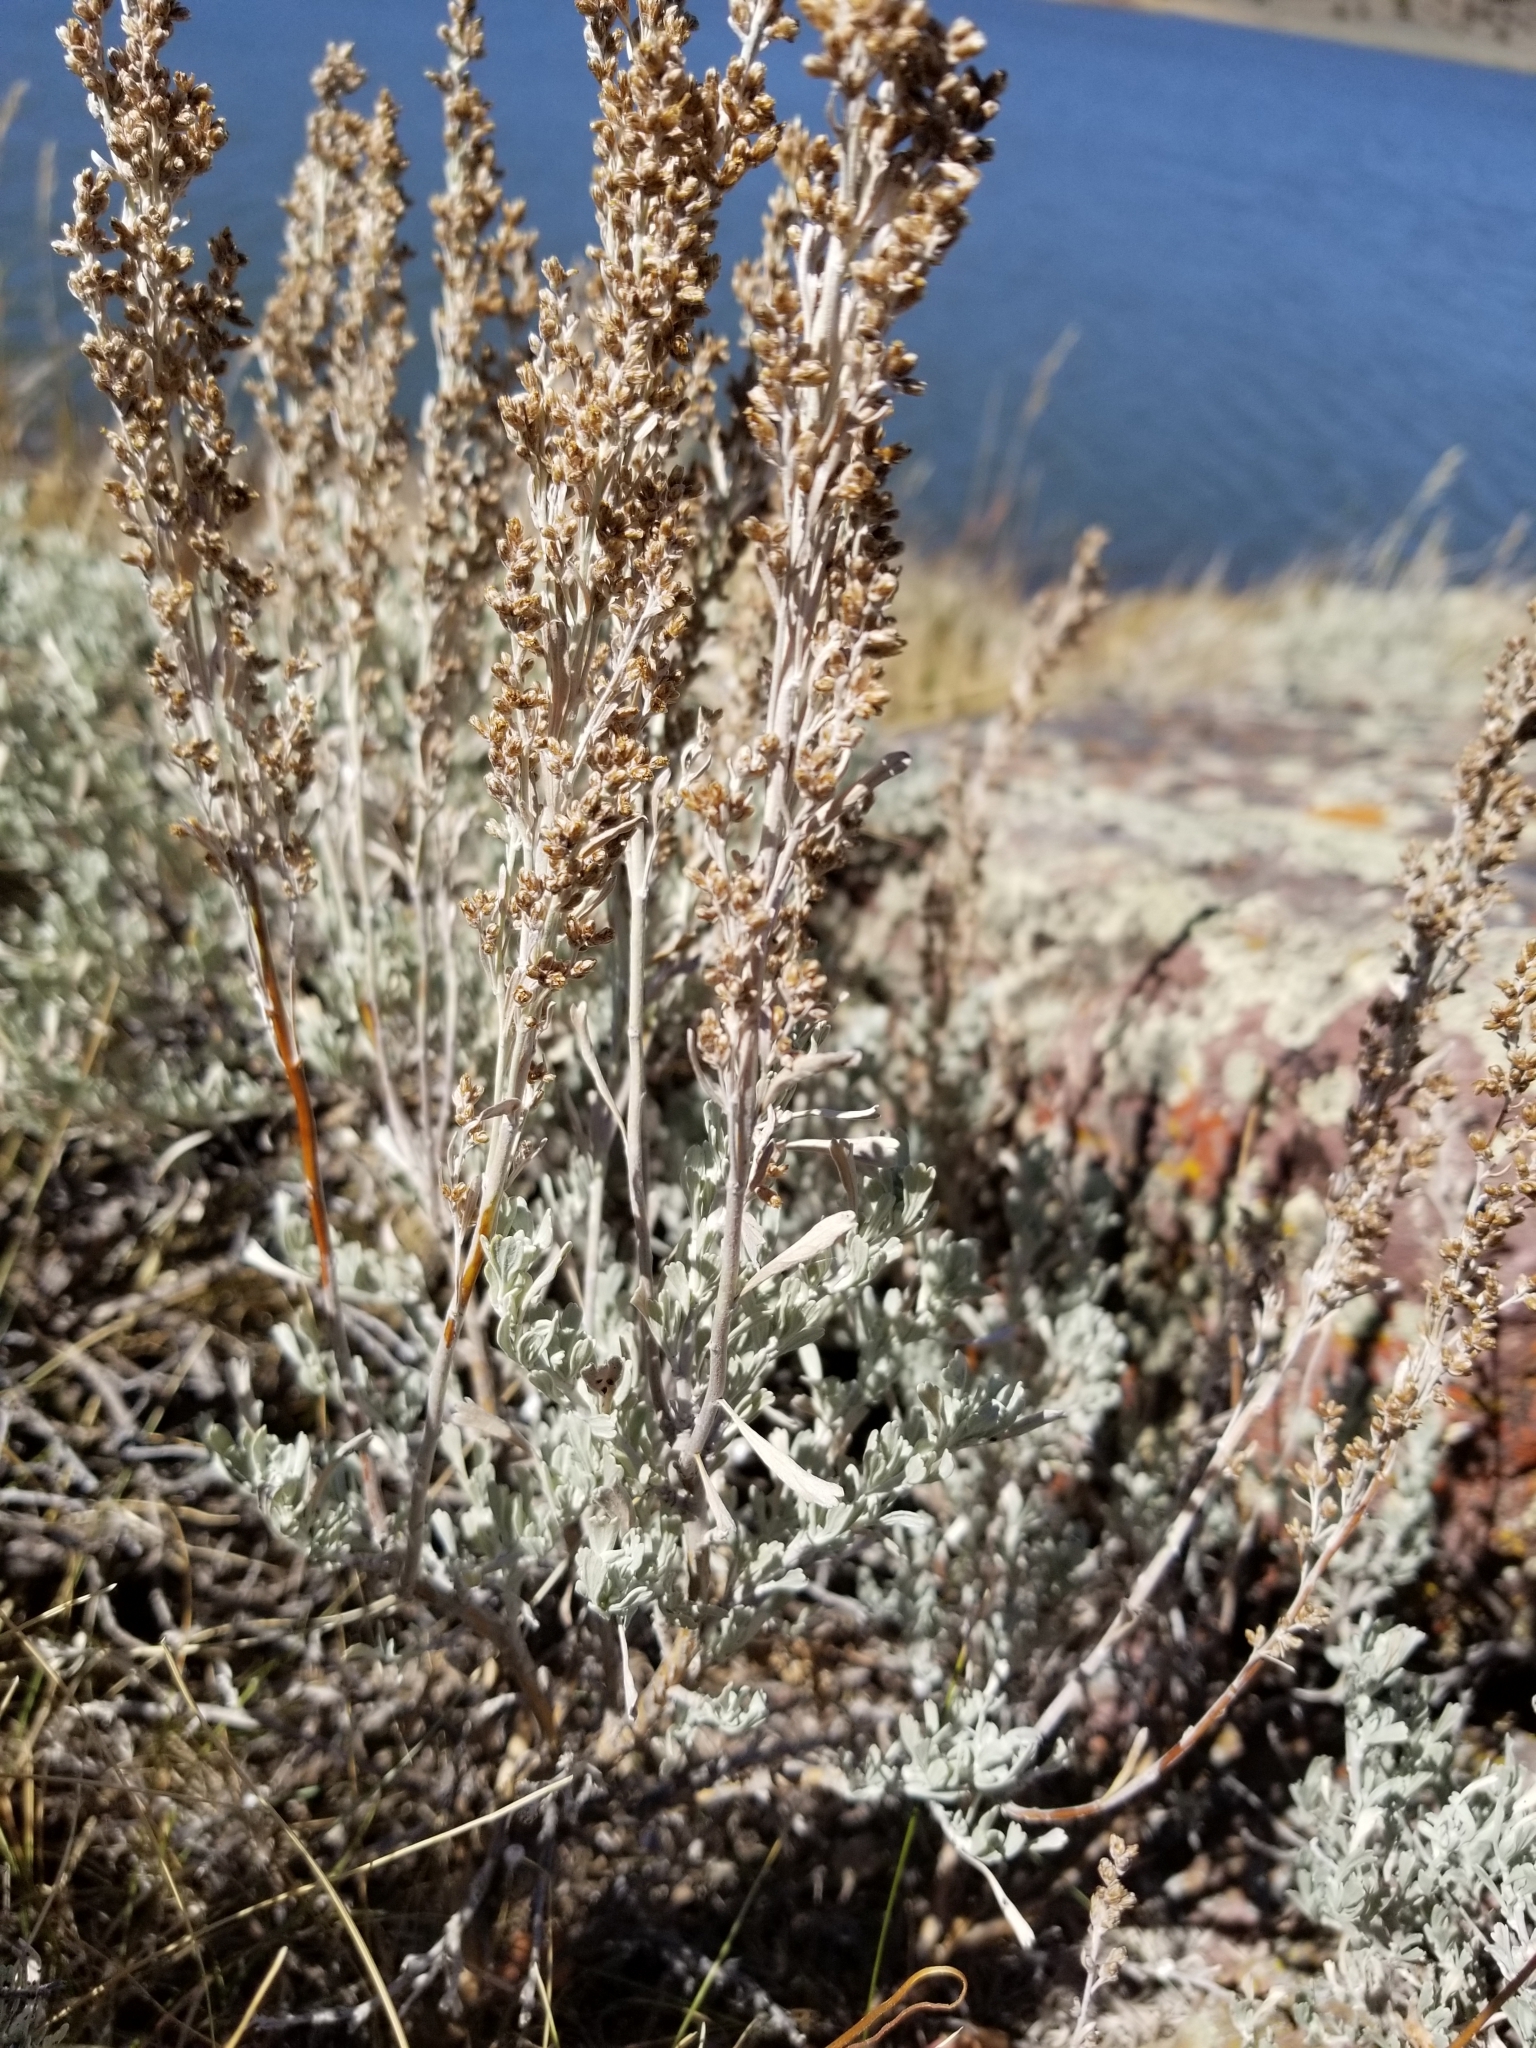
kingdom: Plantae
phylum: Tracheophyta
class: Magnoliopsida
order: Asterales
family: Asteraceae
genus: Artemisia
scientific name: Artemisia tridentata
